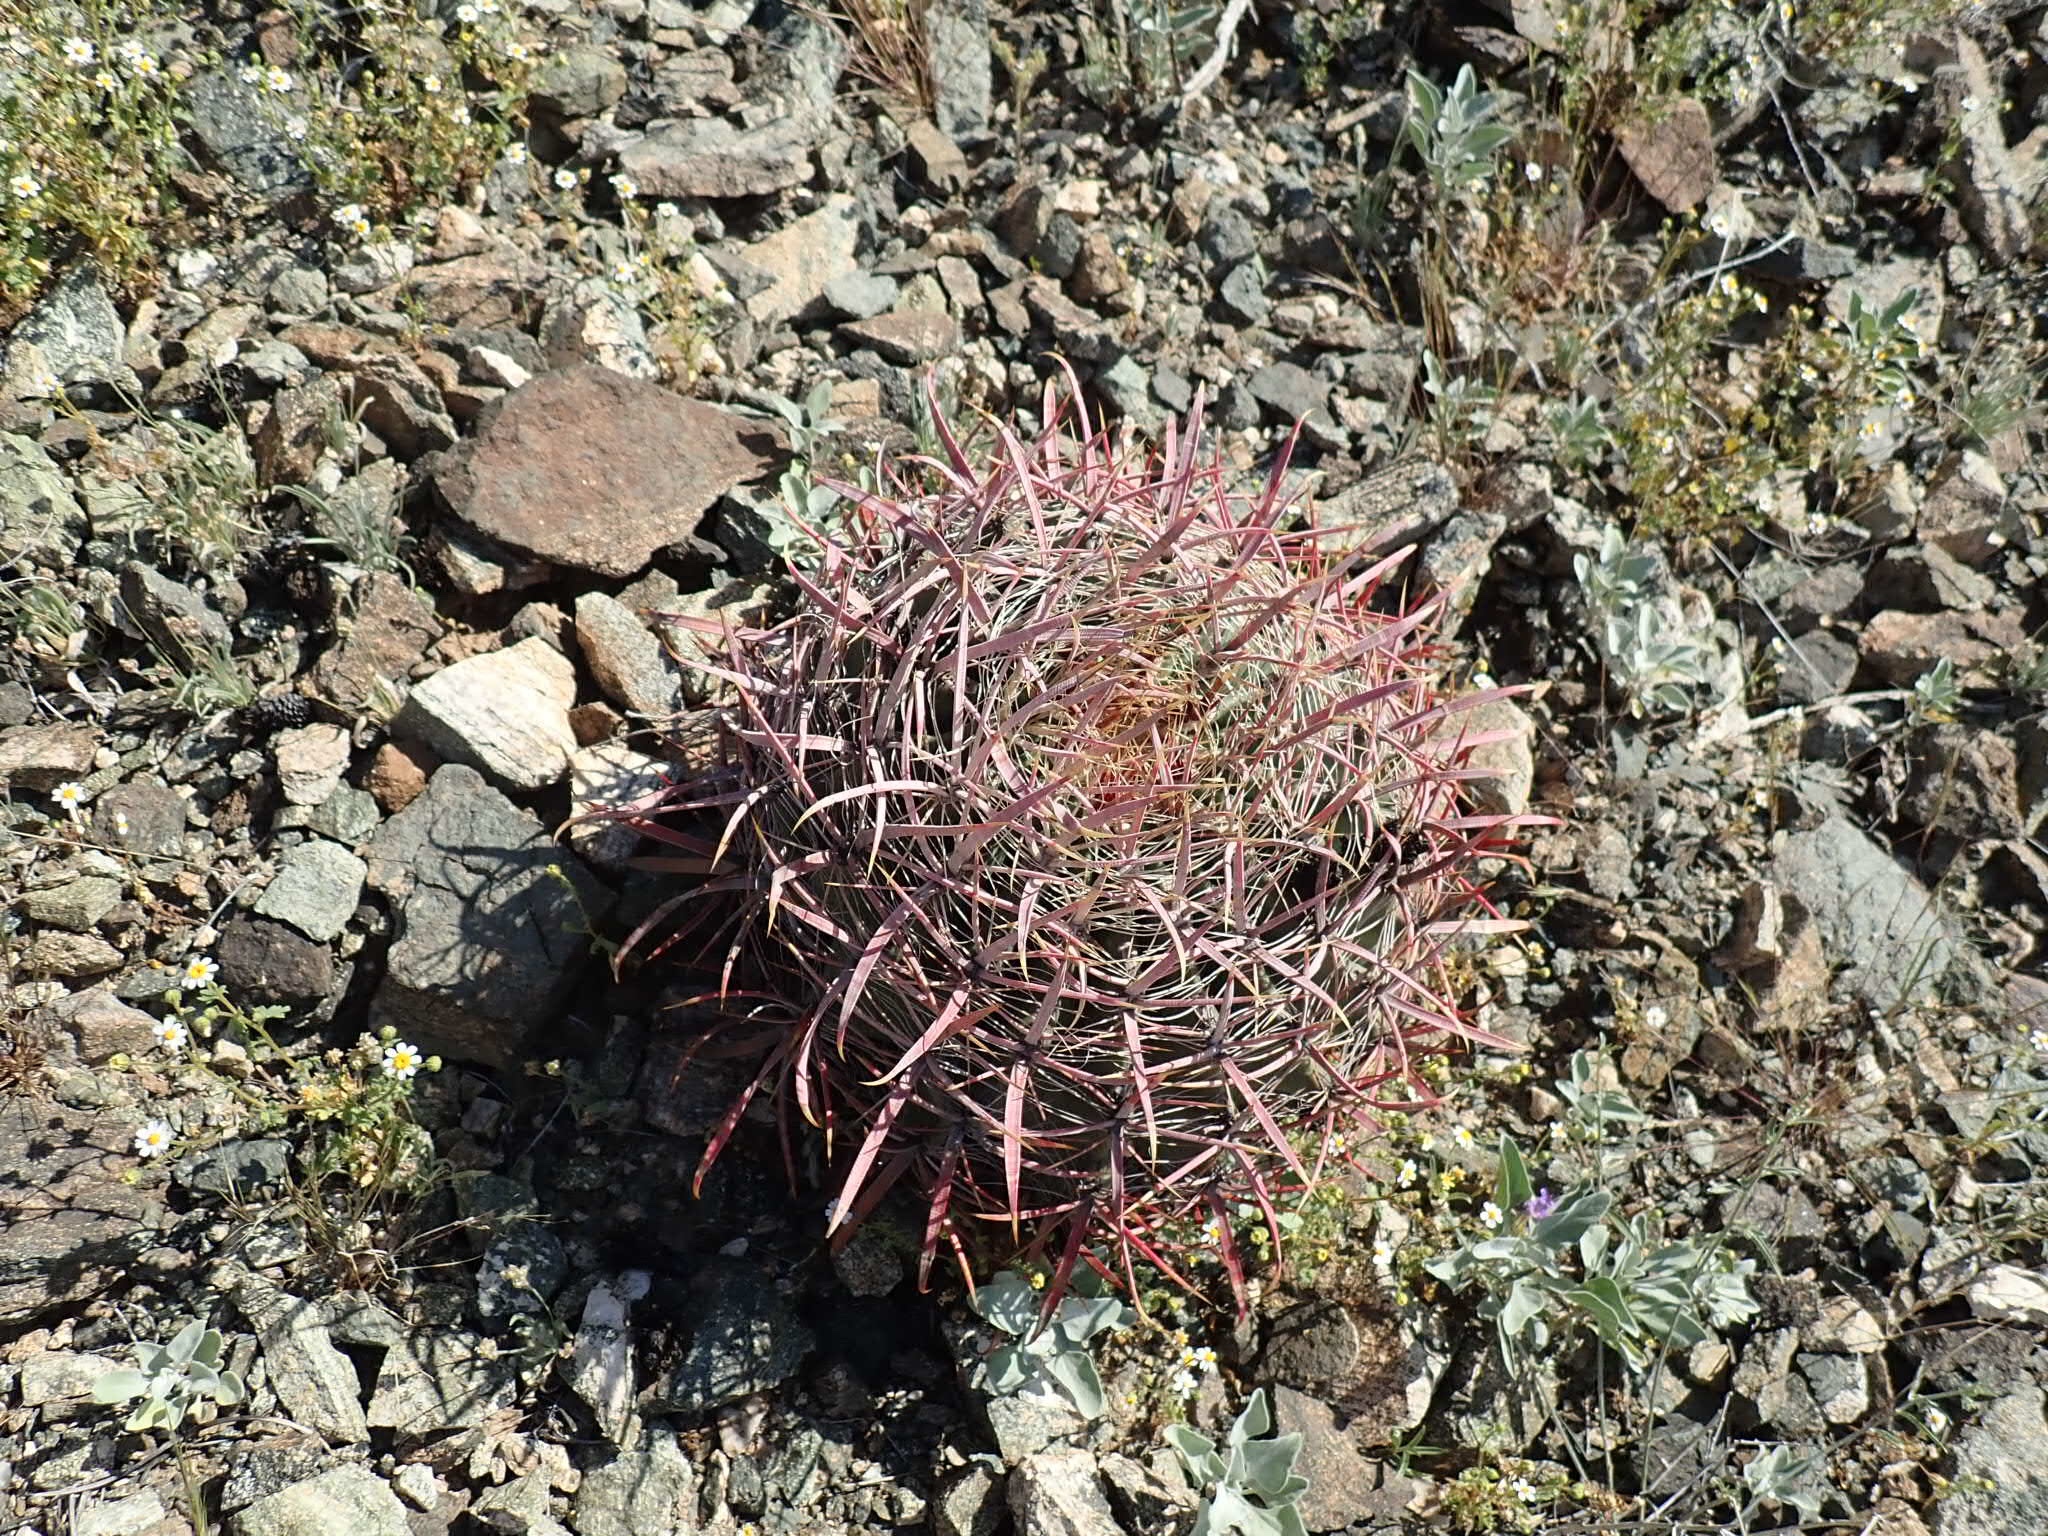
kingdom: Plantae
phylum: Tracheophyta
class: Magnoliopsida
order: Caryophyllales
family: Cactaceae
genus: Ferocactus
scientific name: Ferocactus cylindraceus
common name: California barrel cactus
